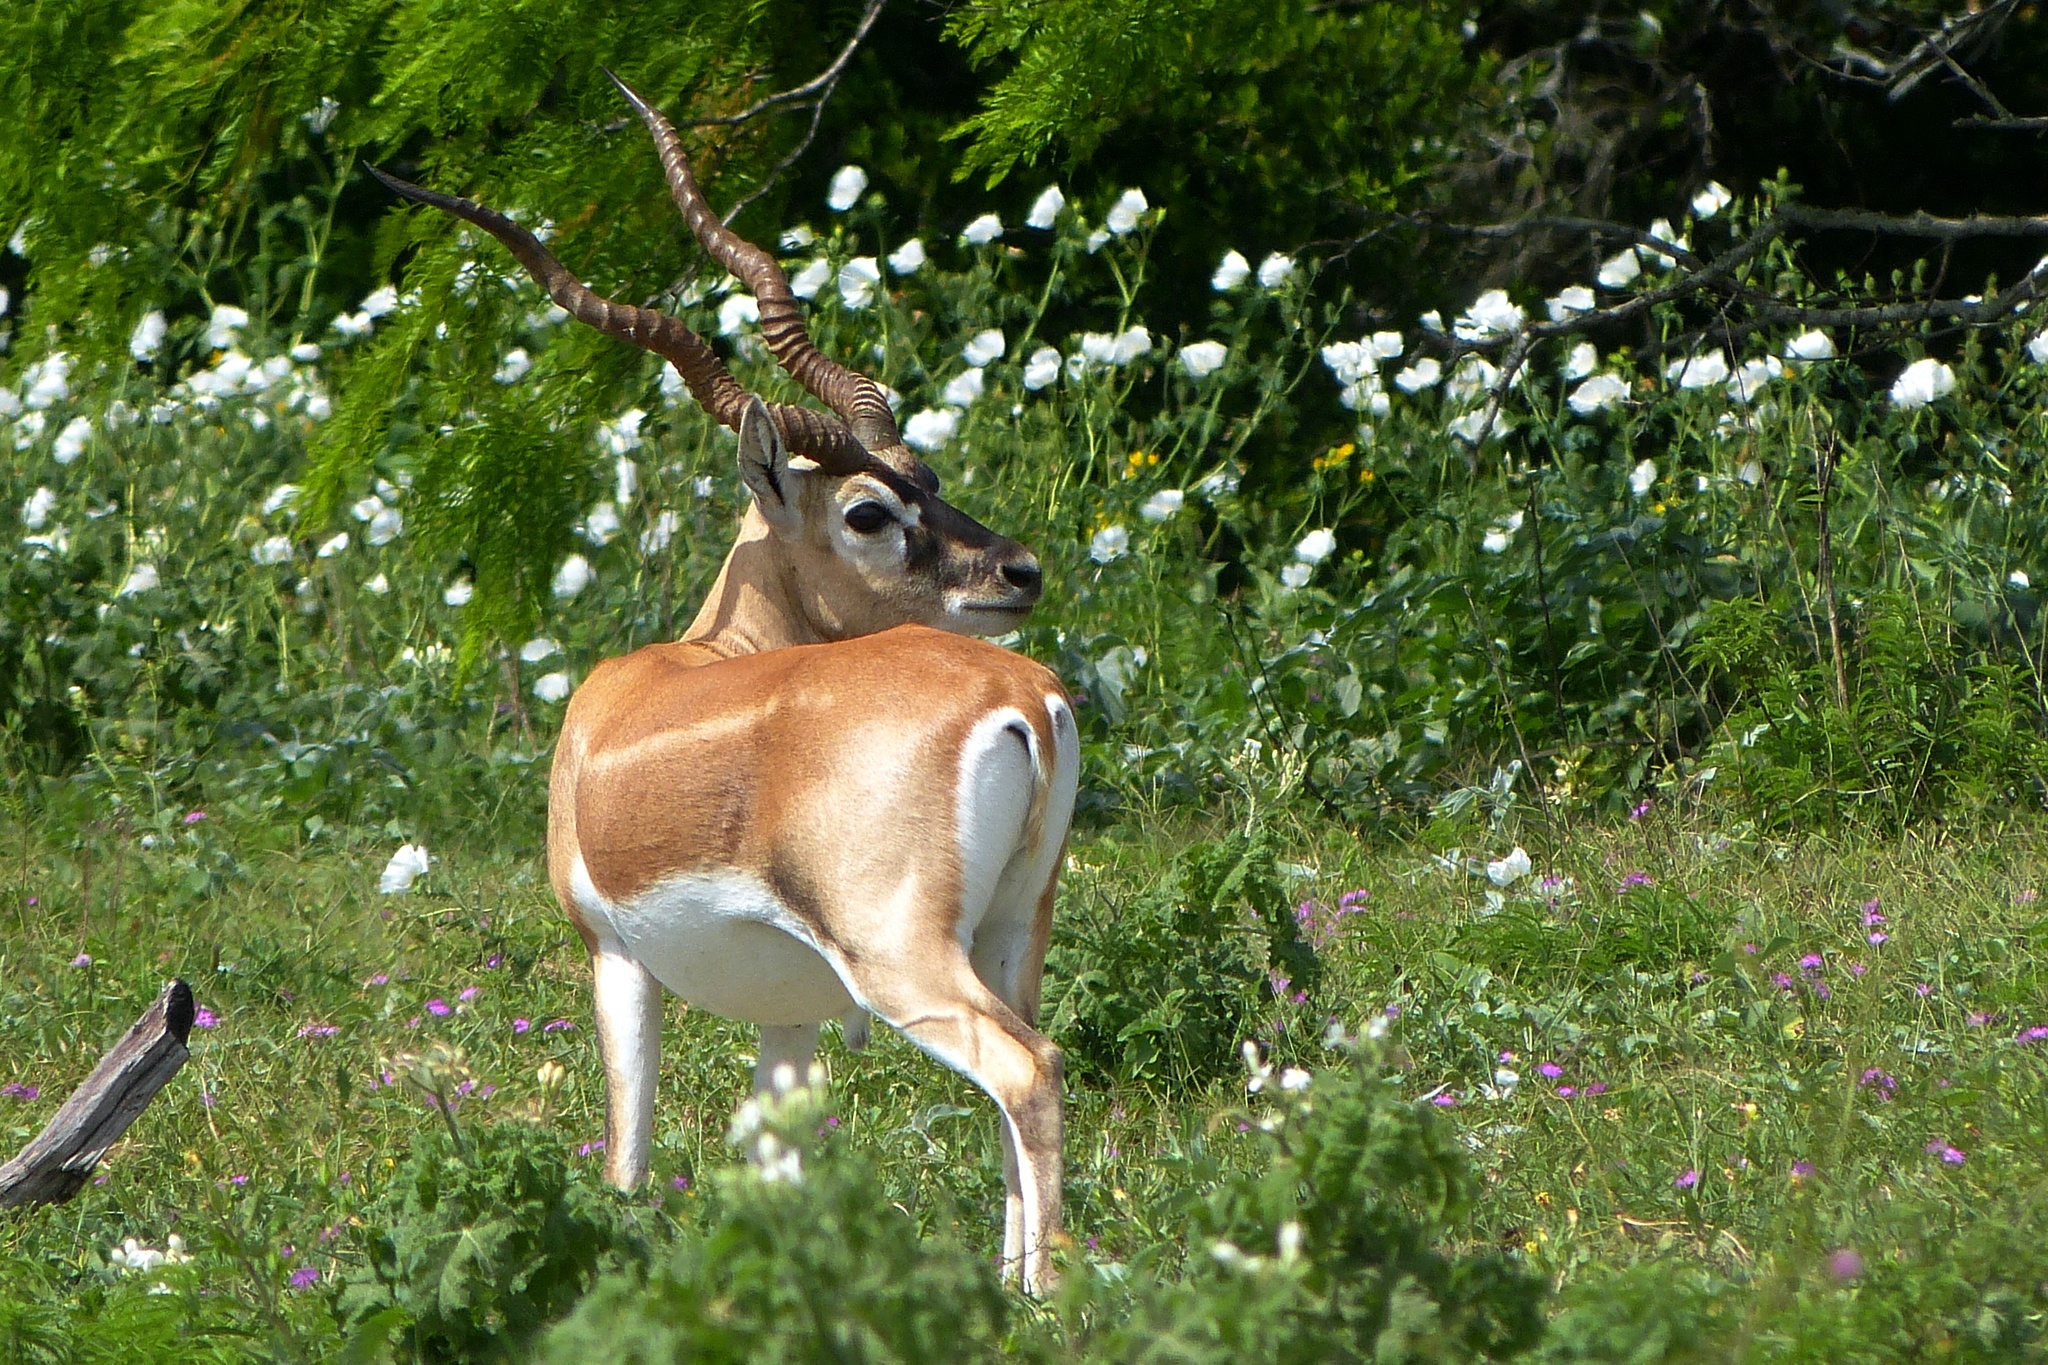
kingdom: Animalia
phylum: Chordata
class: Mammalia
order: Artiodactyla
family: Bovidae
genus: Antilope
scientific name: Antilope cervicapra
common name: Blackbuck
